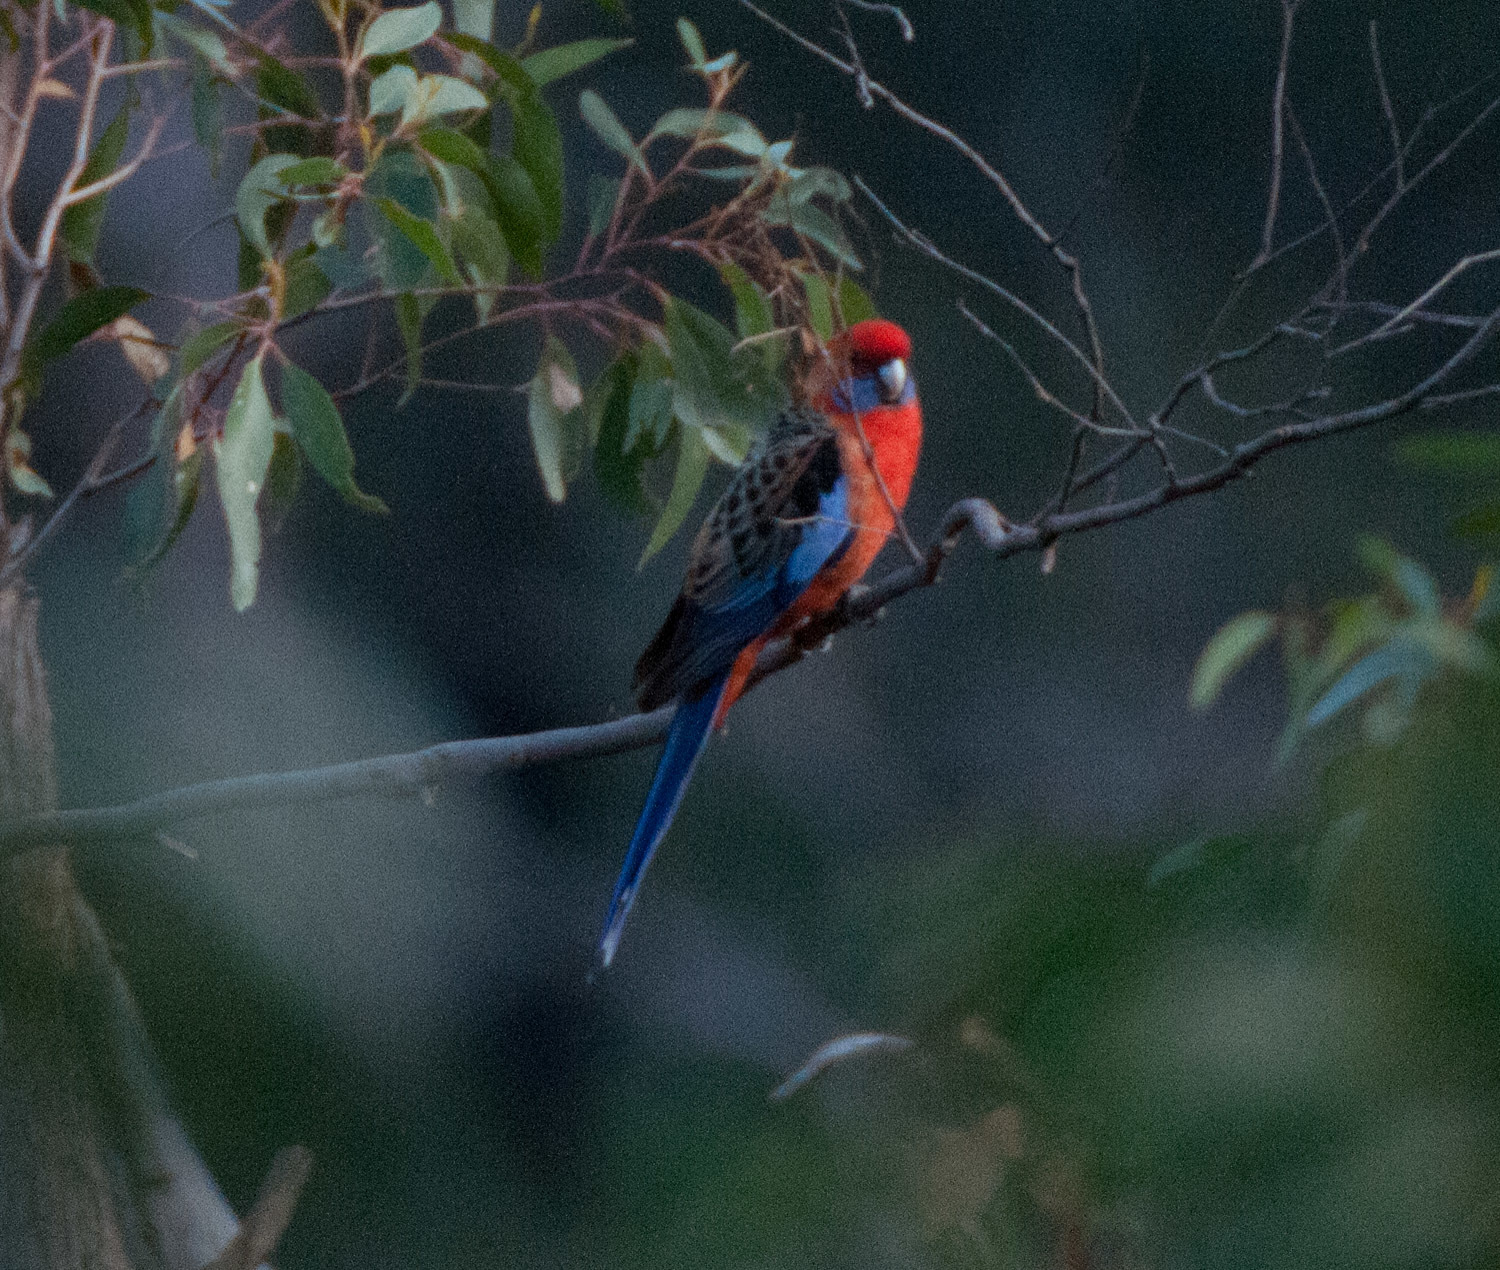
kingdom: Animalia
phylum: Chordata
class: Aves
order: Psittaciformes
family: Psittacidae
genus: Platycercus
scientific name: Platycercus elegans
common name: Crimson rosella
